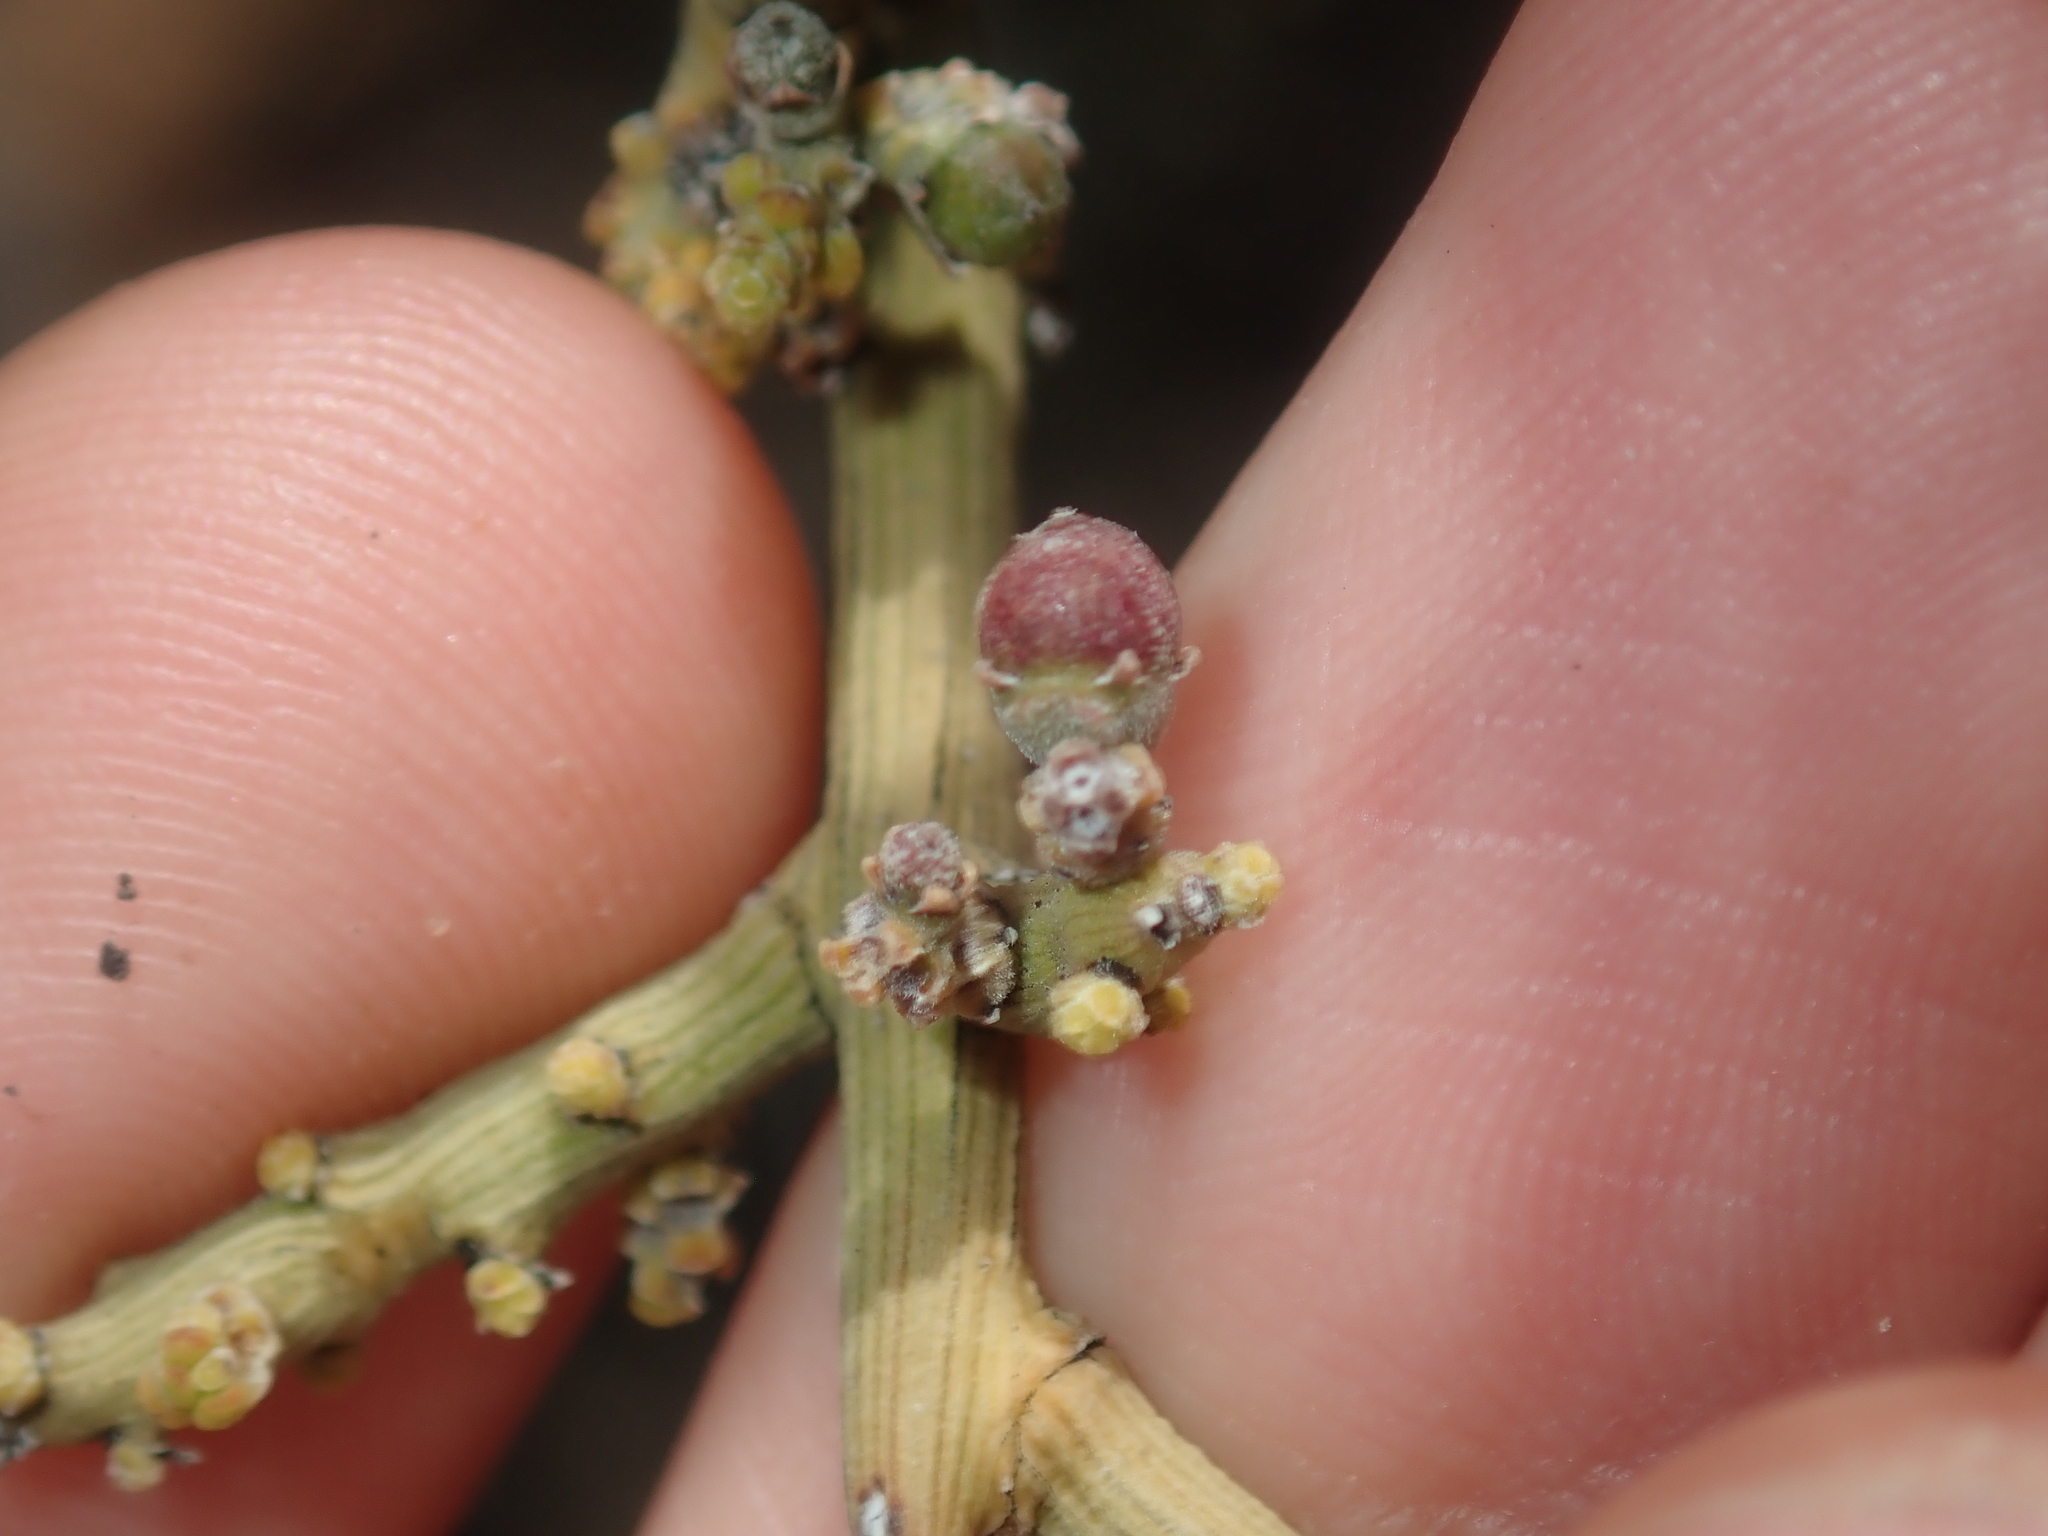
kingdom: Plantae
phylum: Tracheophyta
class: Magnoliopsida
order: Santalales
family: Santalaceae
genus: Exocarpos
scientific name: Exocarpos aphyllus
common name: Leafless ballart
